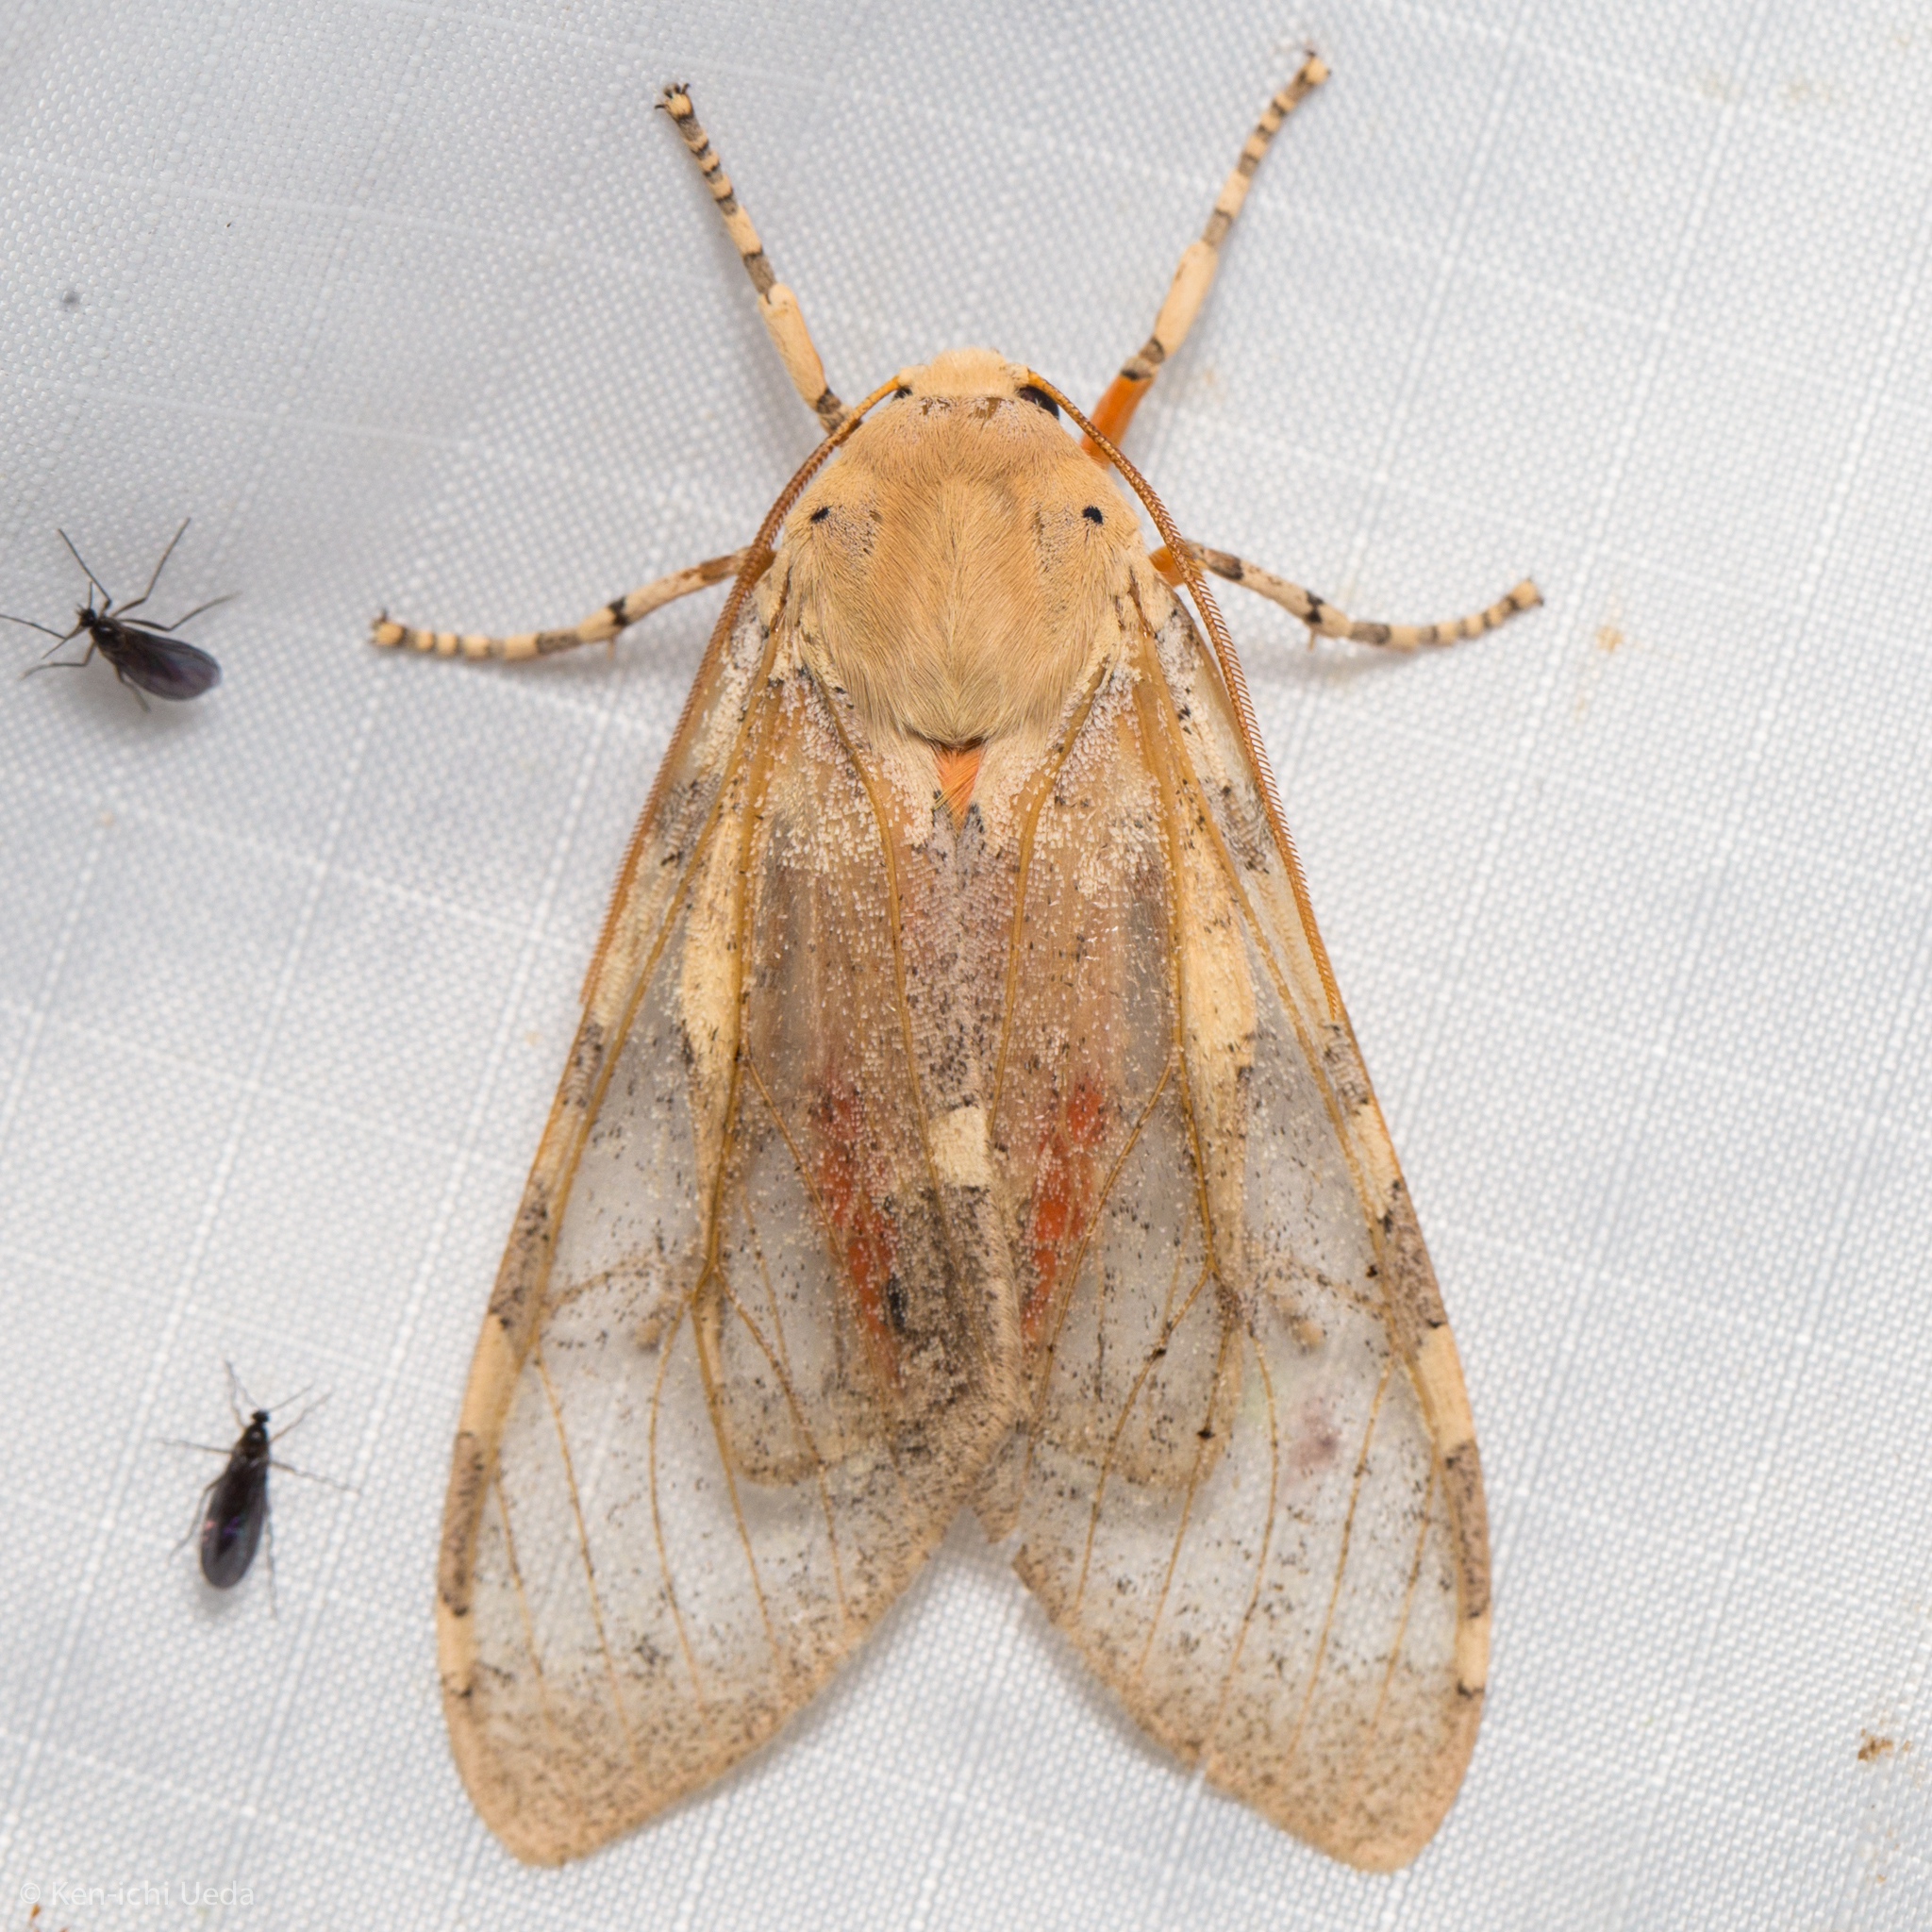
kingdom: Animalia
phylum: Arthropoda
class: Insecta
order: Lepidoptera
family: Erebidae
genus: Hemihyalea
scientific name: Hemihyalea edwardsii
